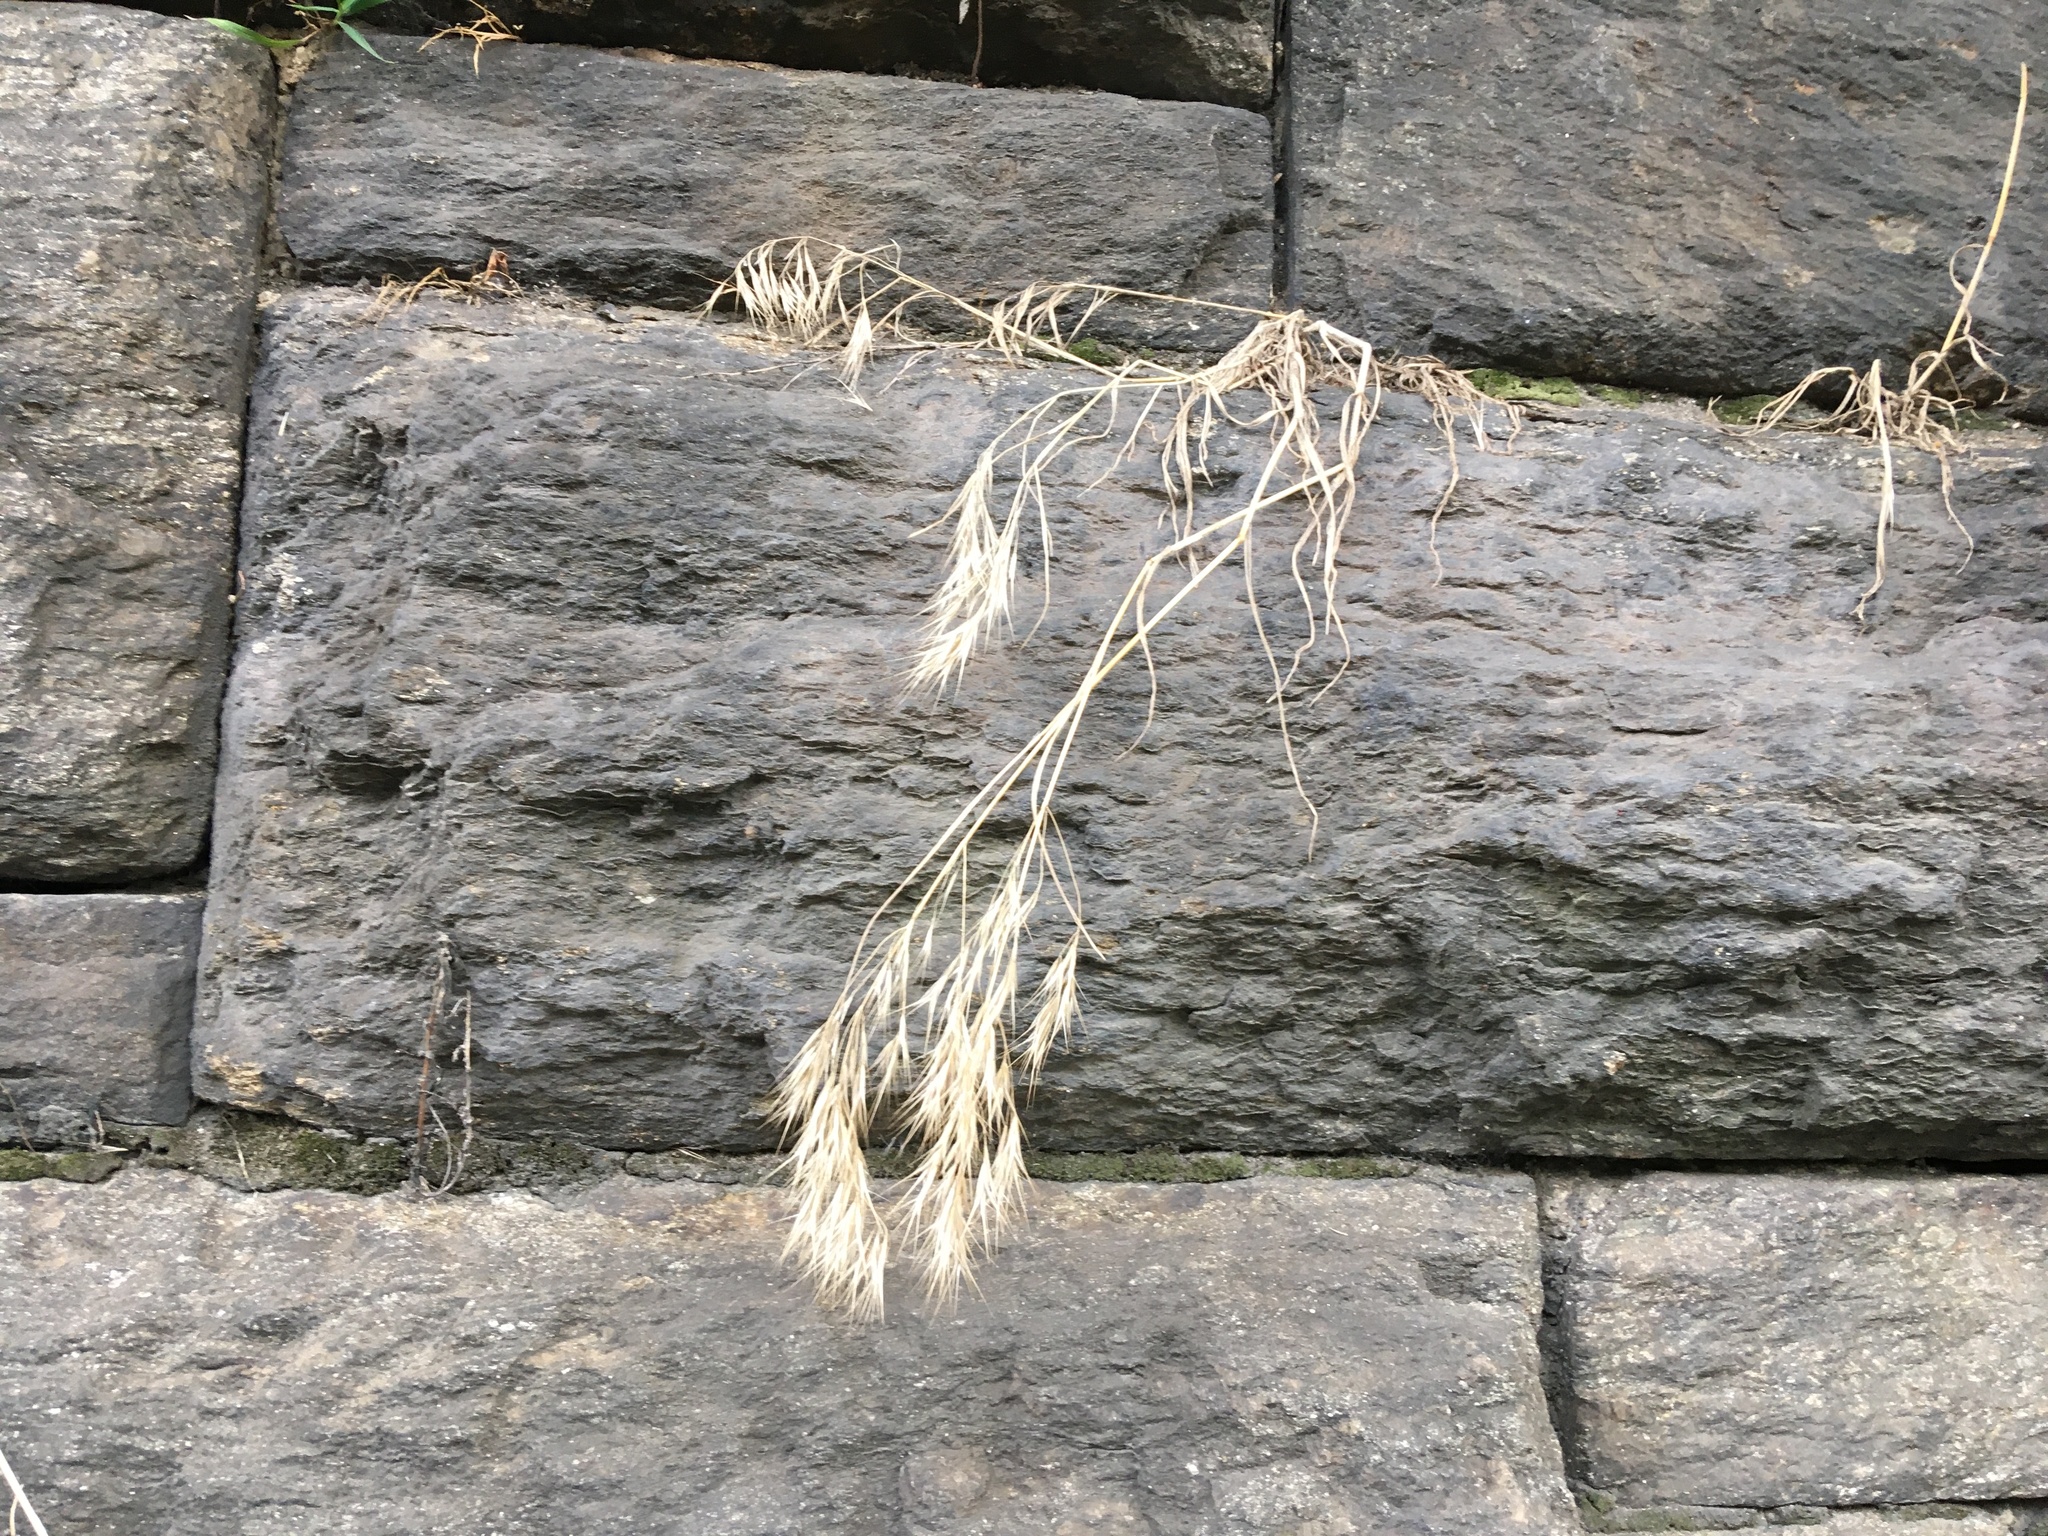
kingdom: Plantae
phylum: Tracheophyta
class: Liliopsida
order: Poales
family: Poaceae
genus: Bromus
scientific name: Bromus tectorum
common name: Cheatgrass
